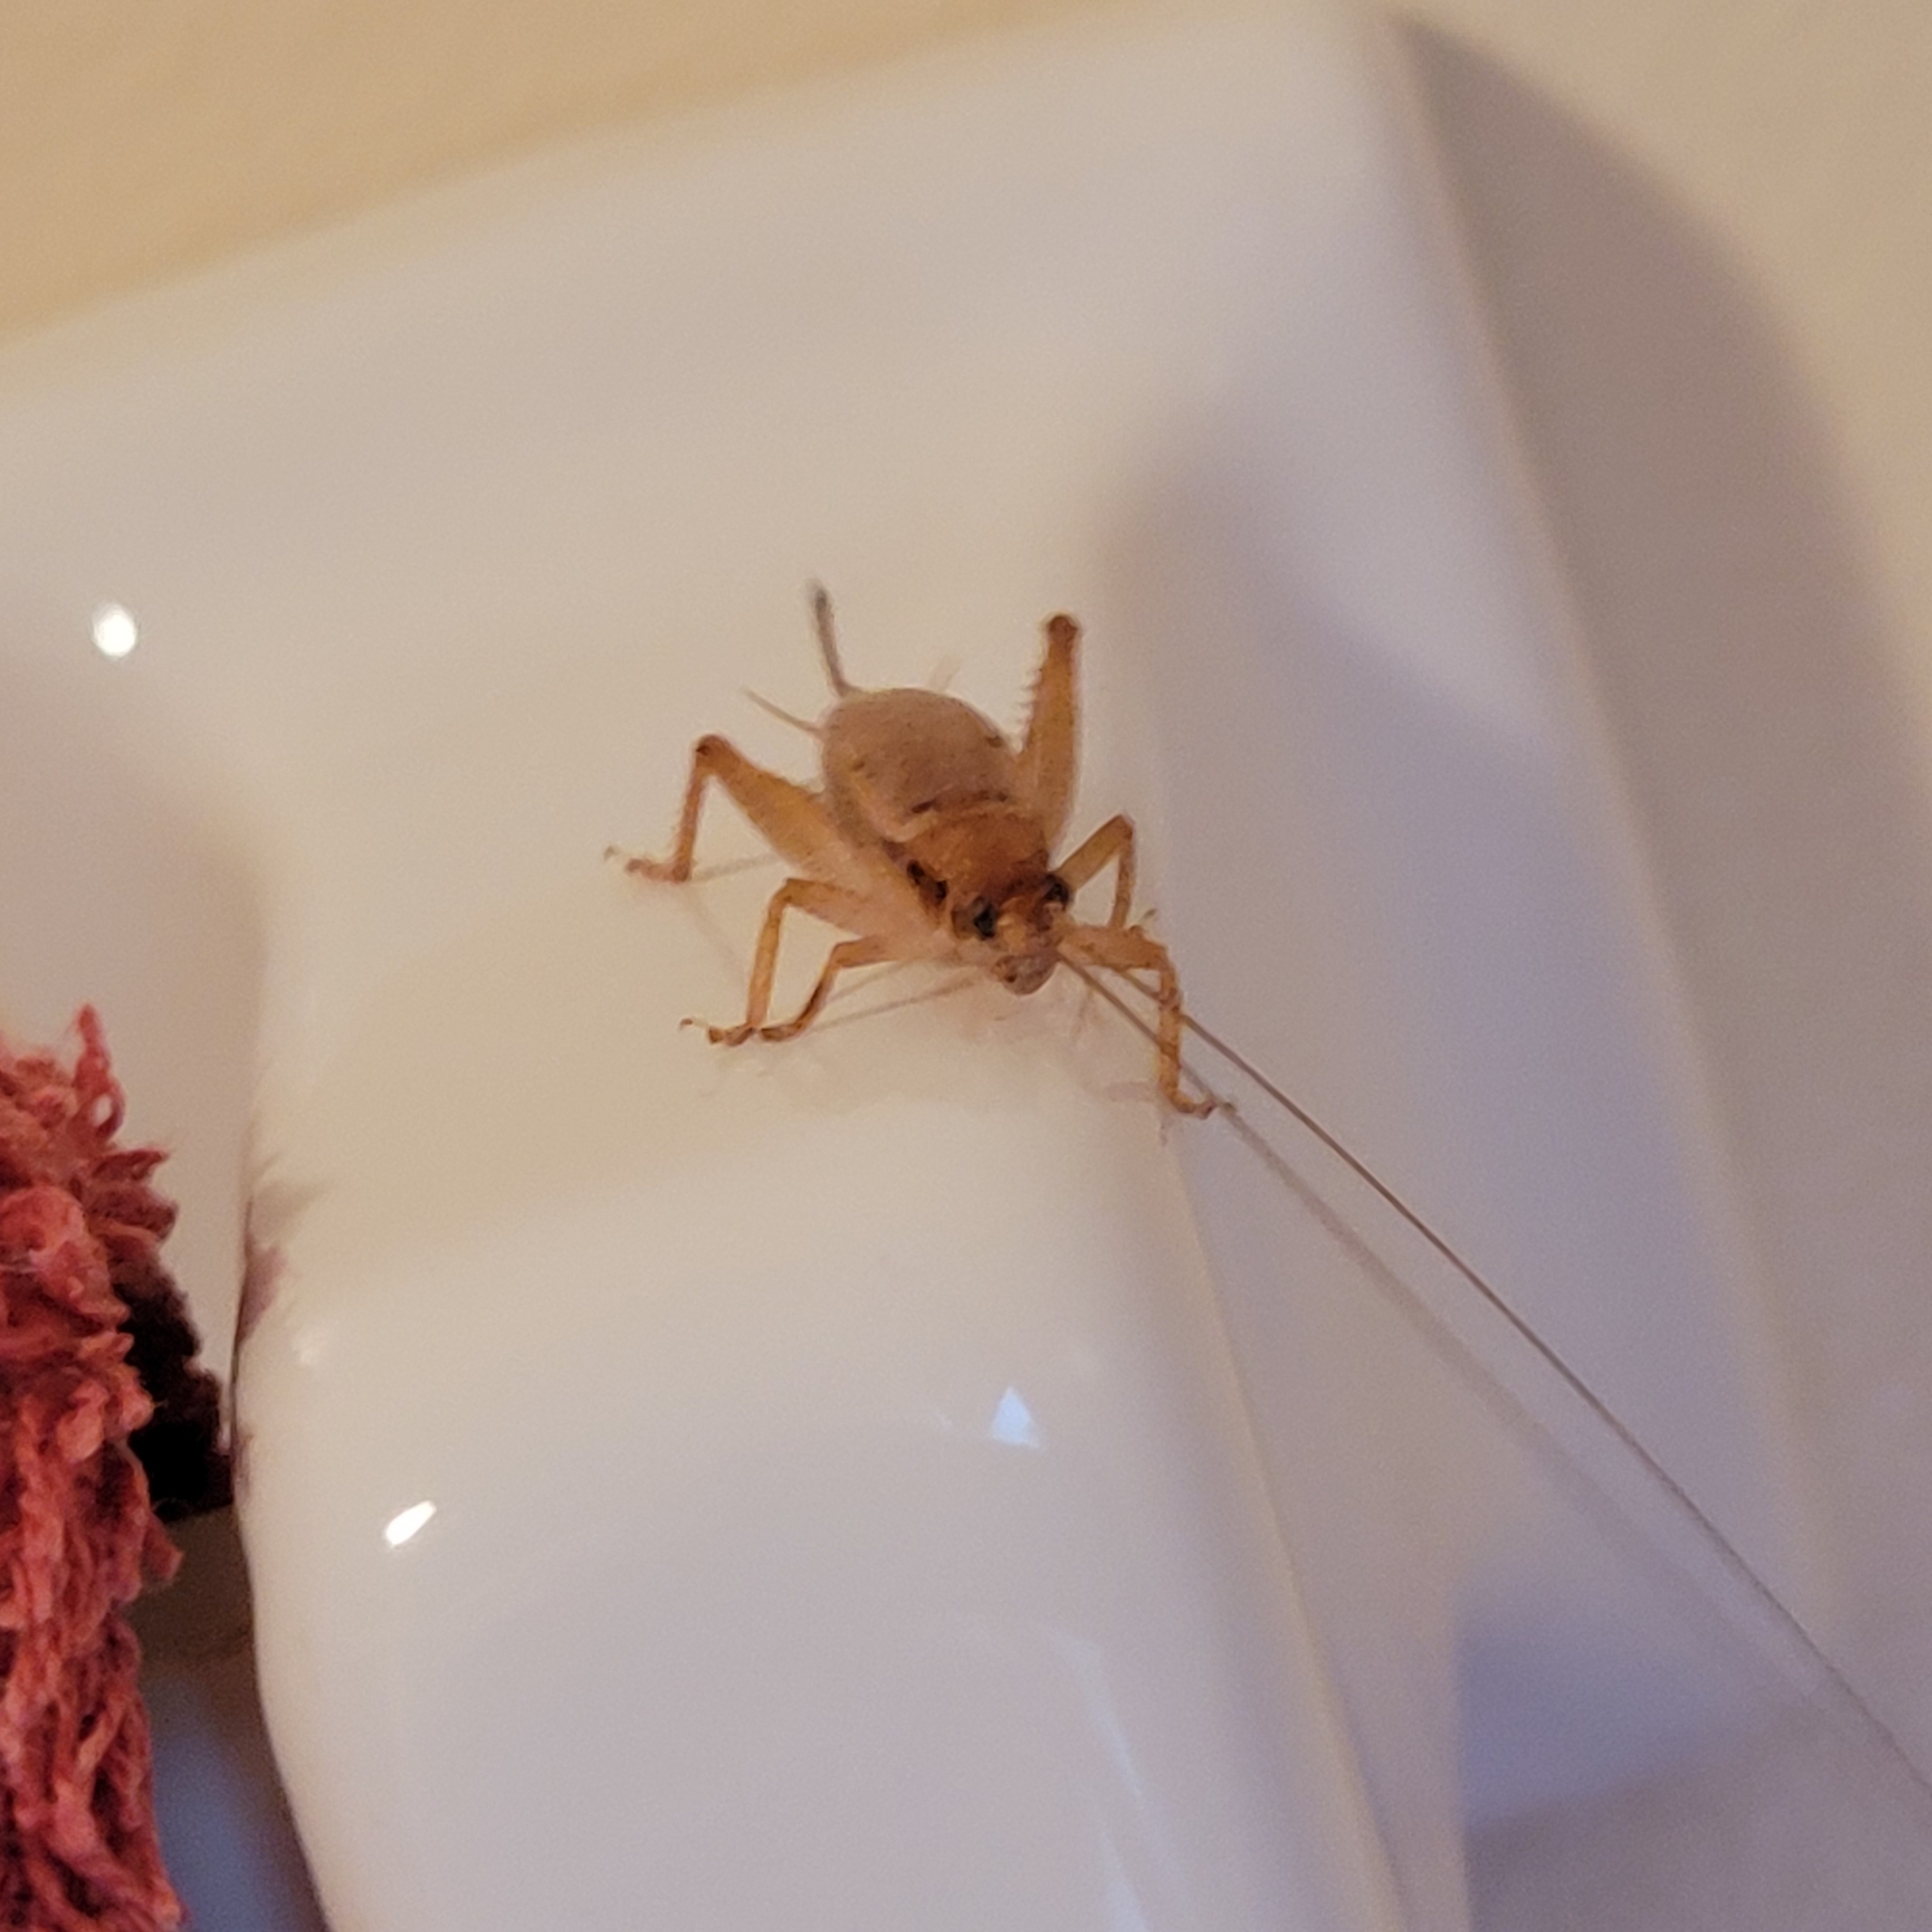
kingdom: Animalia
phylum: Arthropoda
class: Insecta
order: Orthoptera
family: Gryllidae
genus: Hapithus
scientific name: Hapithus saltator
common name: Jumping bush cricket
